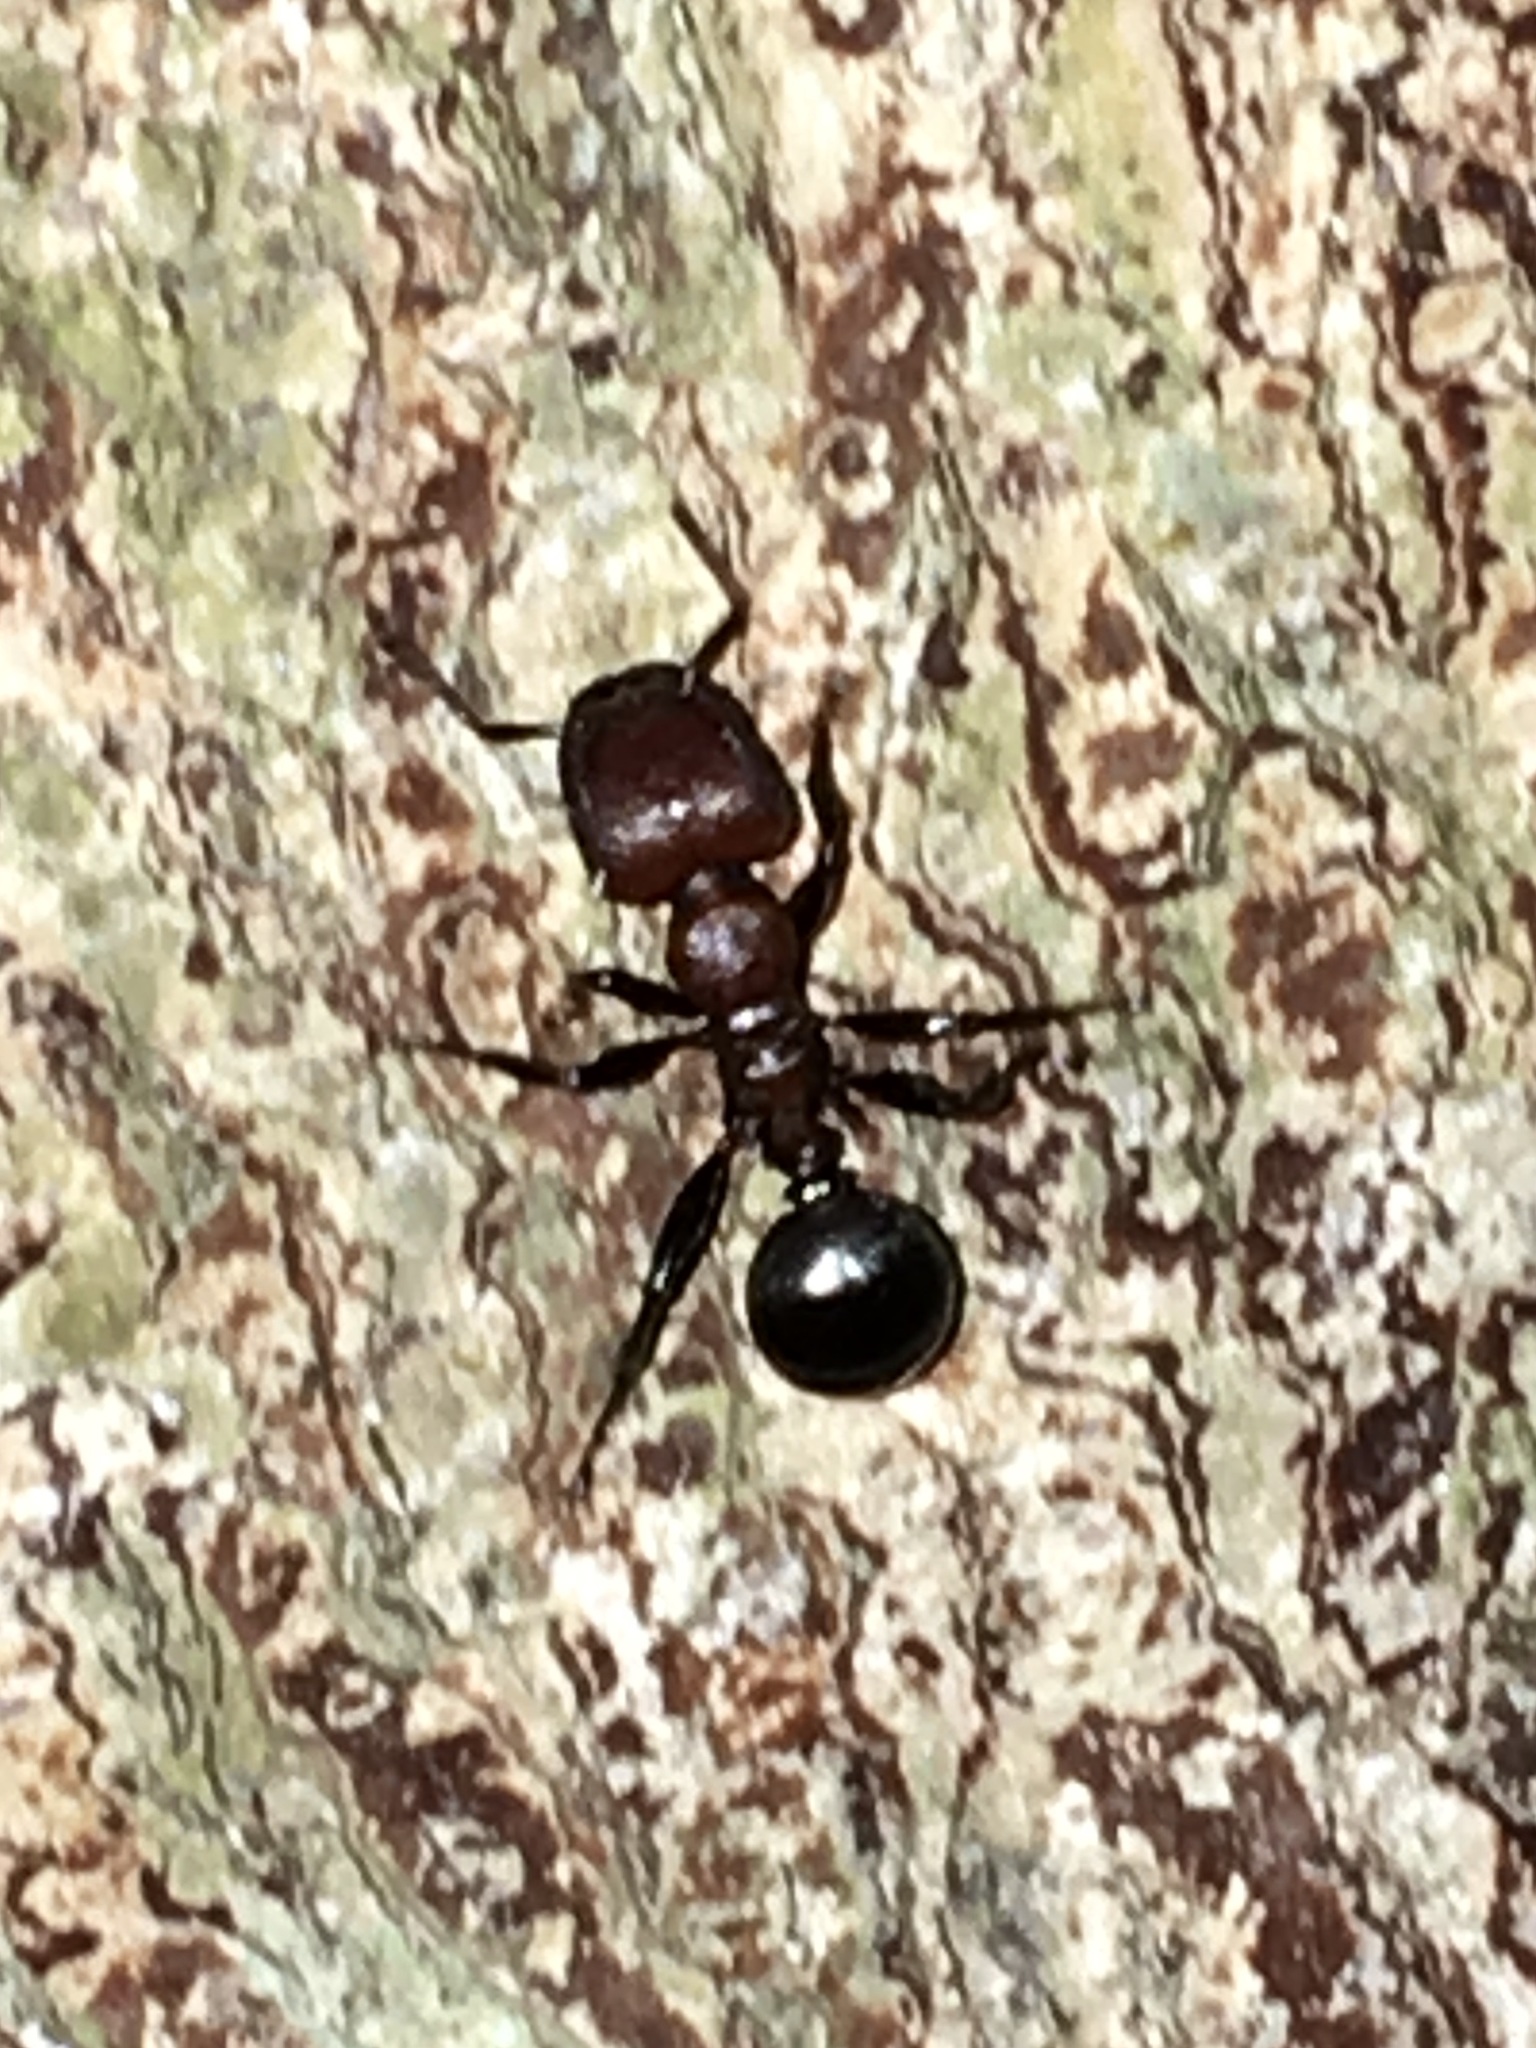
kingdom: Animalia
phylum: Arthropoda
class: Insecta
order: Hymenoptera
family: Formicidae
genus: Myrmicaria
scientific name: Myrmicaria natalensis
